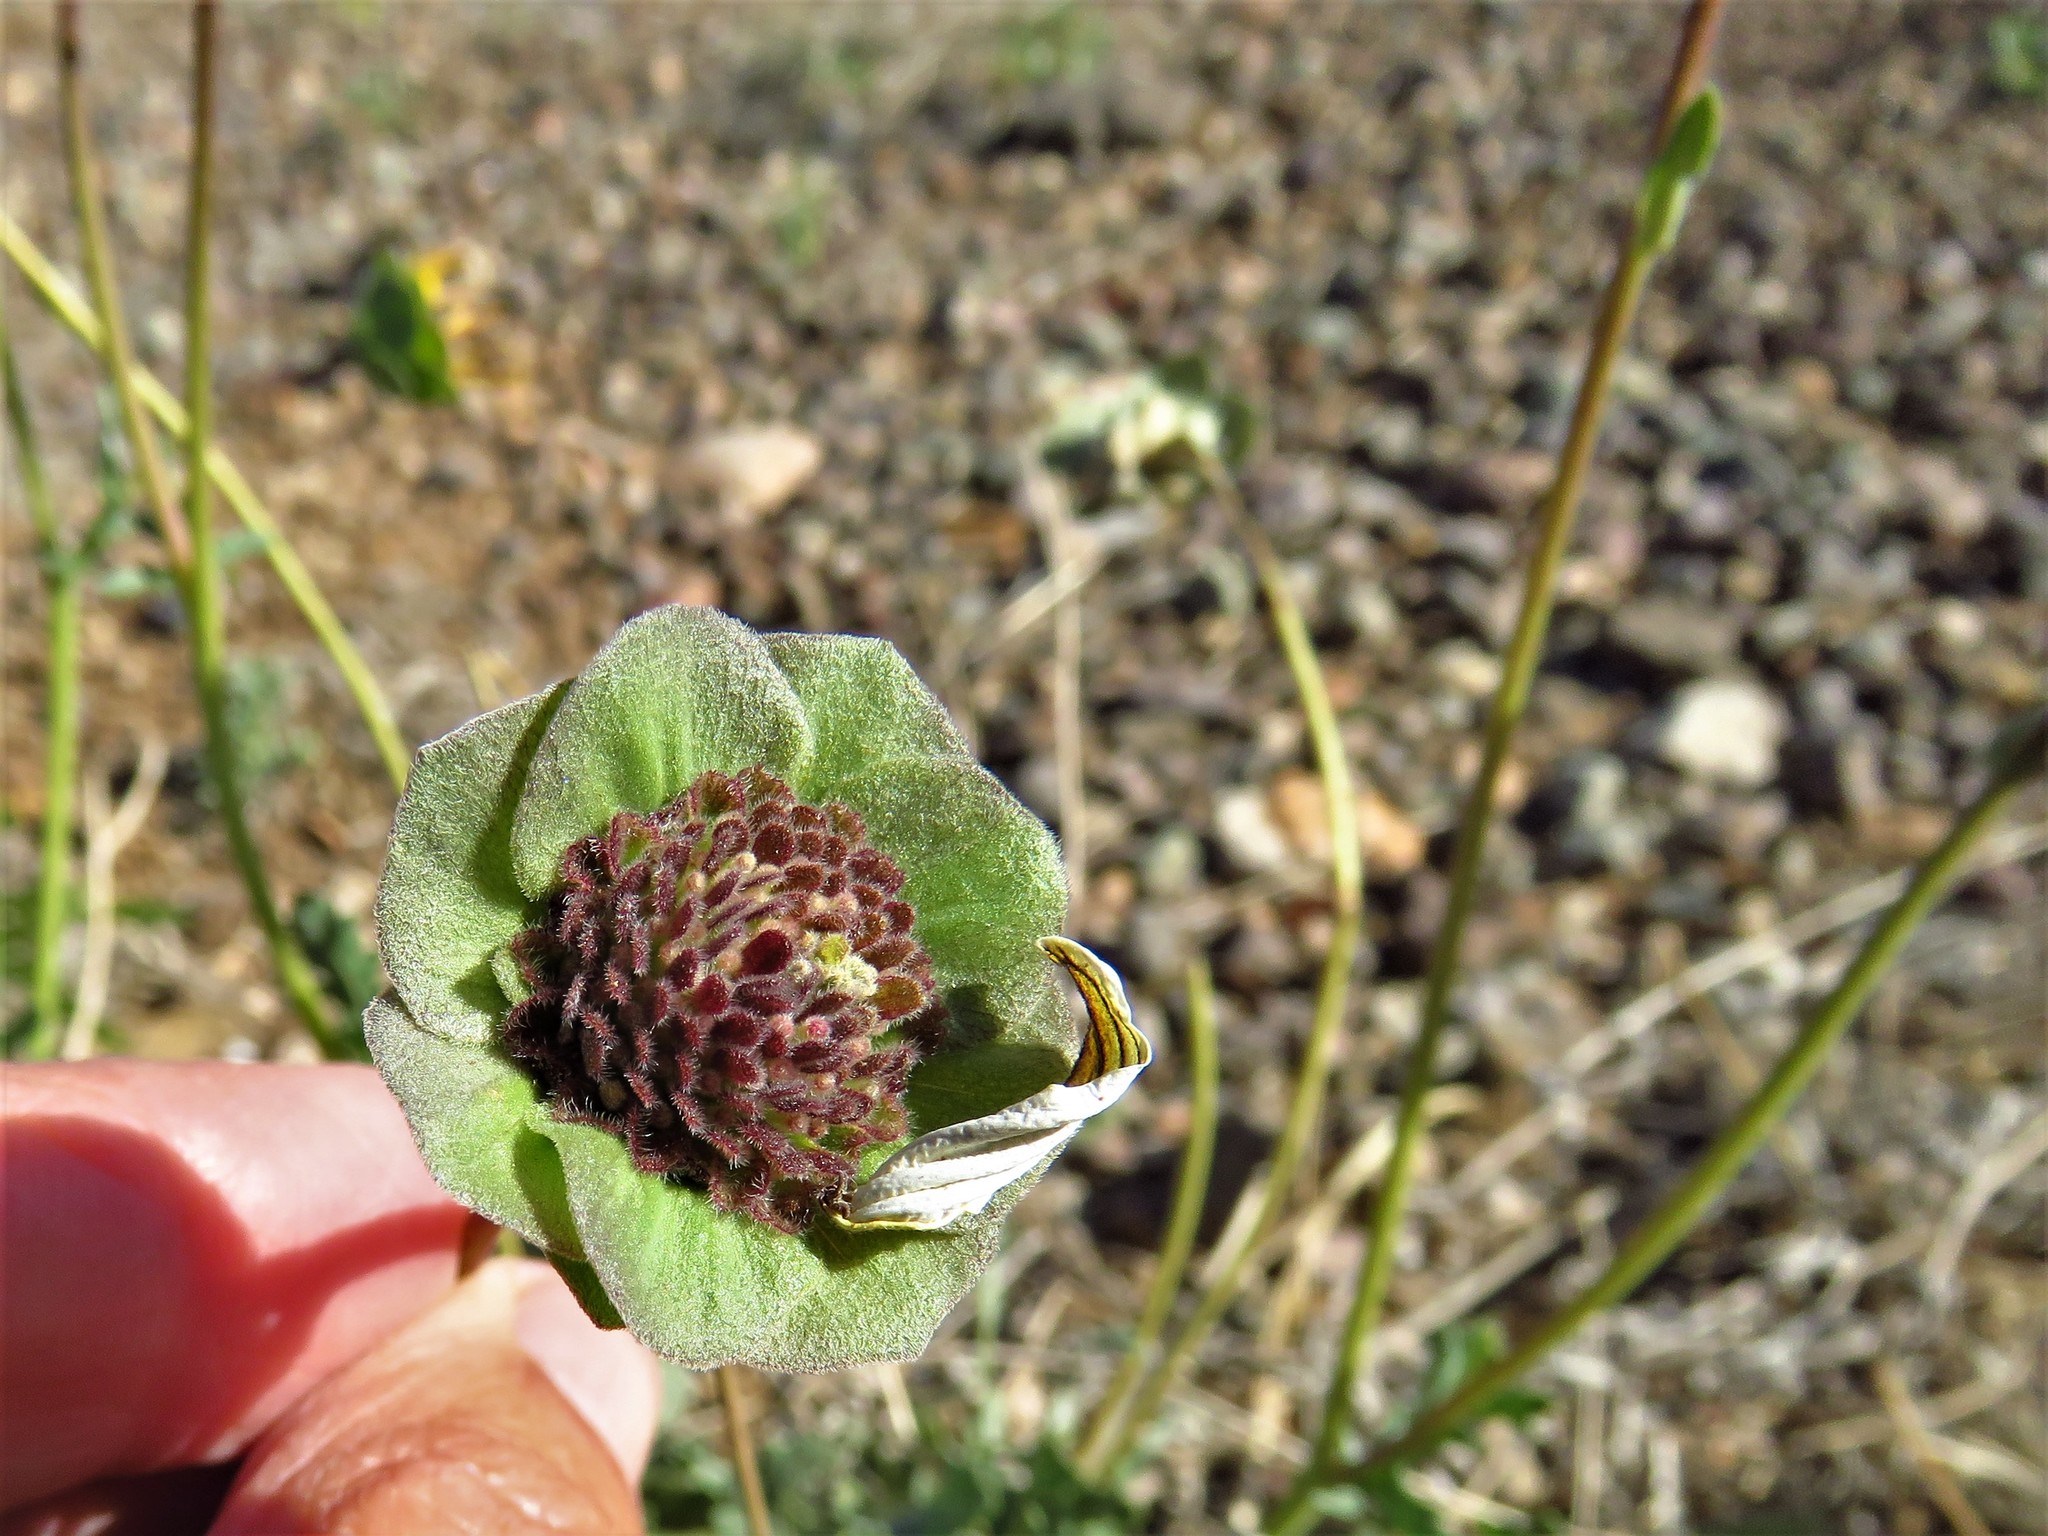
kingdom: Plantae
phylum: Tracheophyta
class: Magnoliopsida
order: Asterales
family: Asteraceae
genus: Berlandiera
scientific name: Berlandiera lyrata
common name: Chocolate-flower
